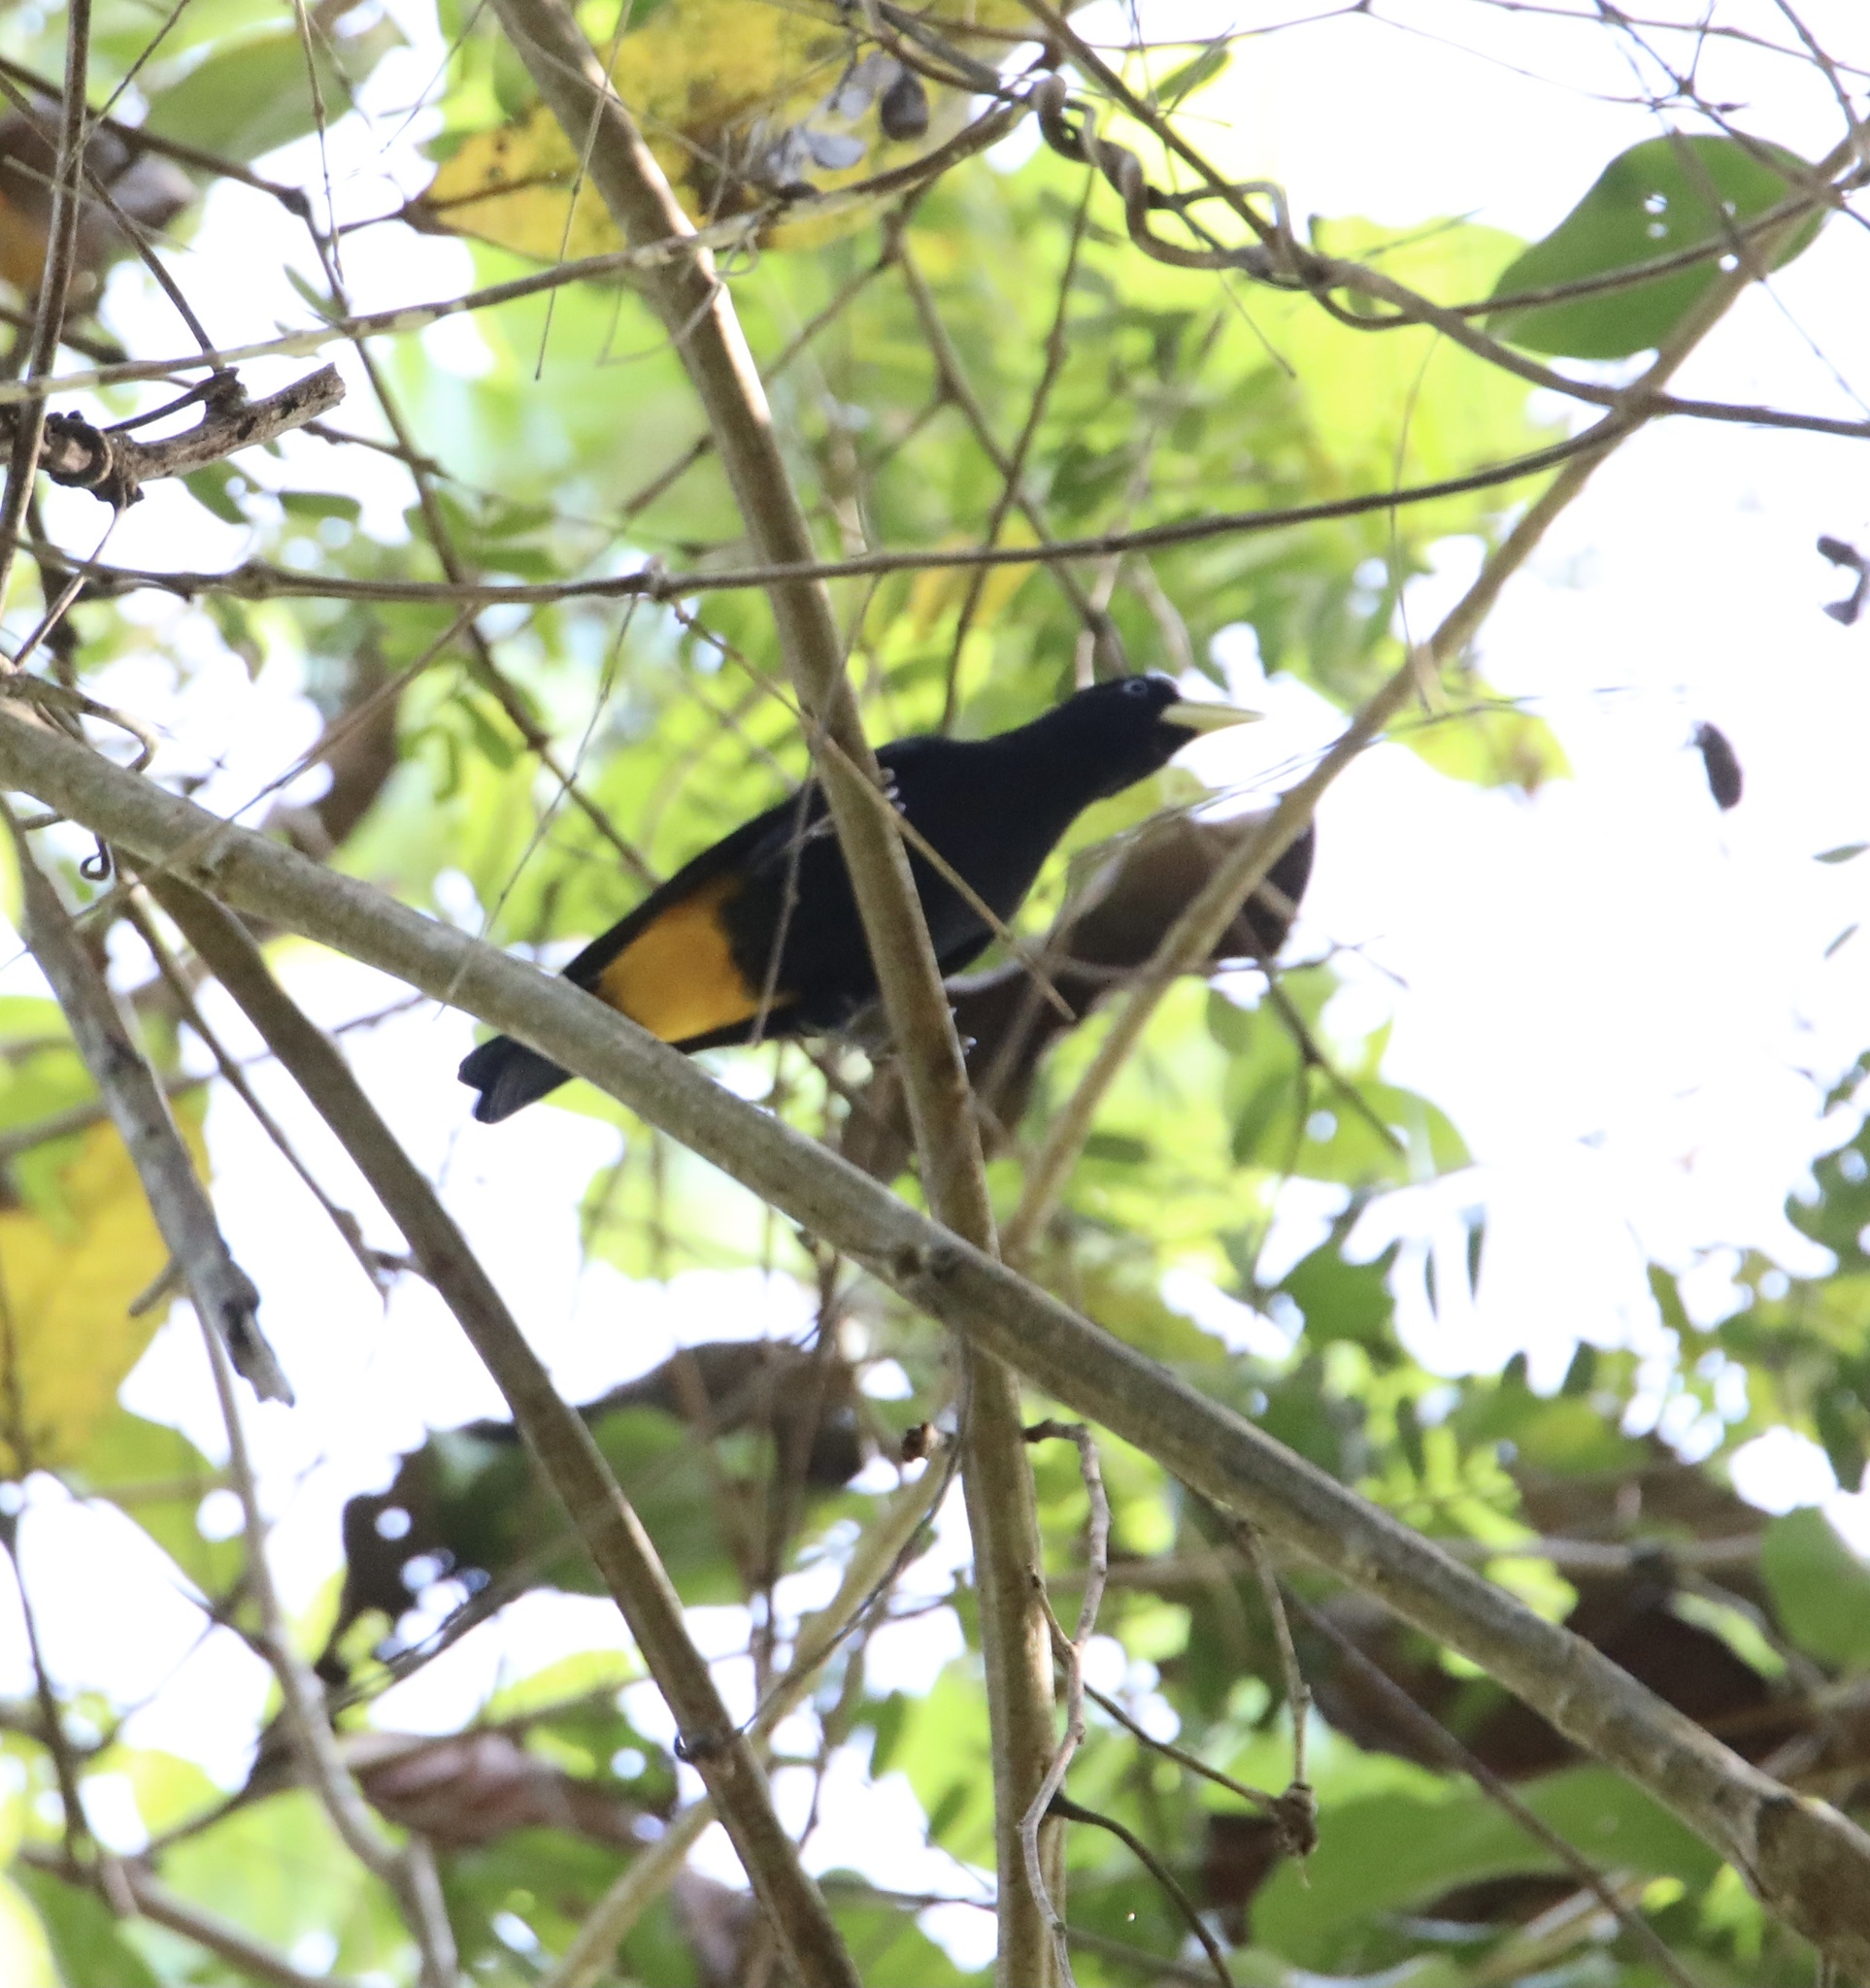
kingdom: Animalia
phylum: Chordata
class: Aves
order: Passeriformes
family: Icteridae
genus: Cacicus
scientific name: Cacicus cela
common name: Yellow-rumped cacique
